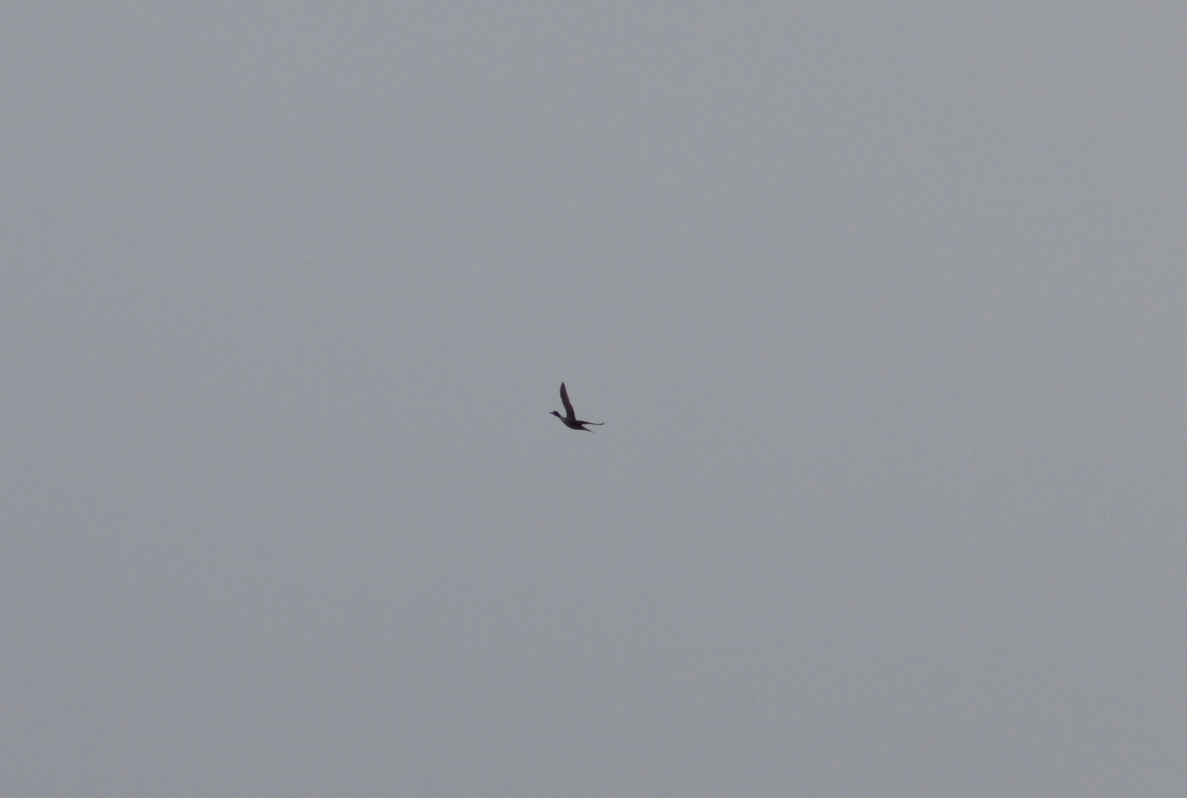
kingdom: Animalia
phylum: Chordata
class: Aves
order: Anseriformes
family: Anatidae
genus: Anas
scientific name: Anas acuta
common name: Northern pintail
